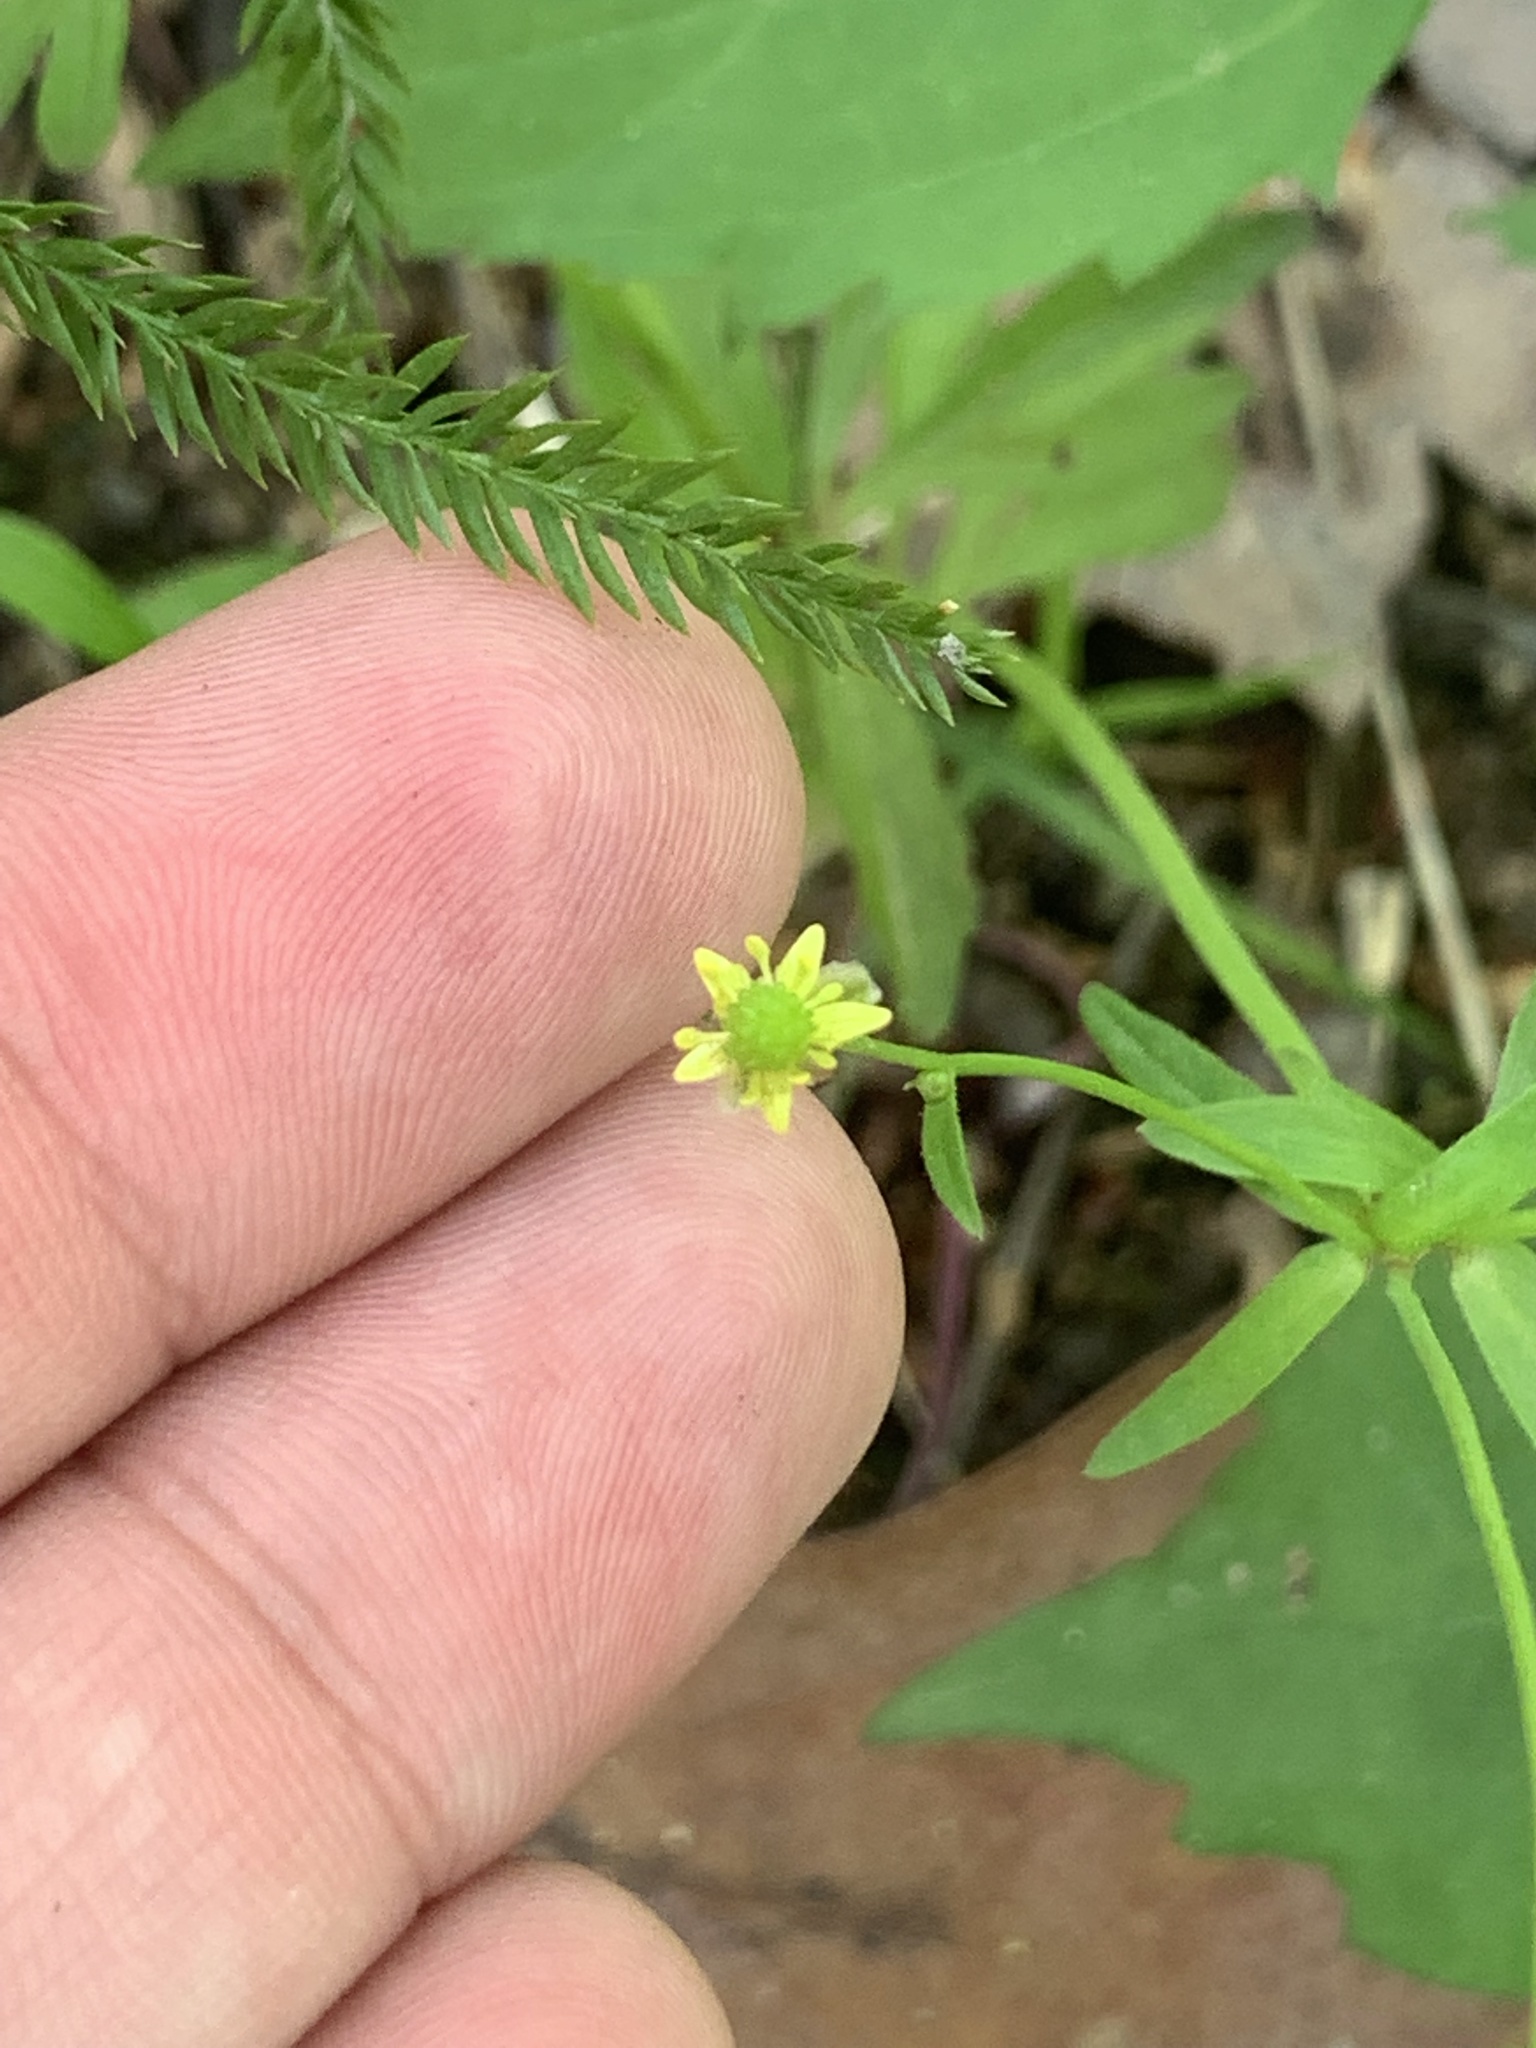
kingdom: Plantae
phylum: Tracheophyta
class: Magnoliopsida
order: Ranunculales
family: Ranunculaceae
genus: Ranunculus
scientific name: Ranunculus abortivus
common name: Early wood buttercup
